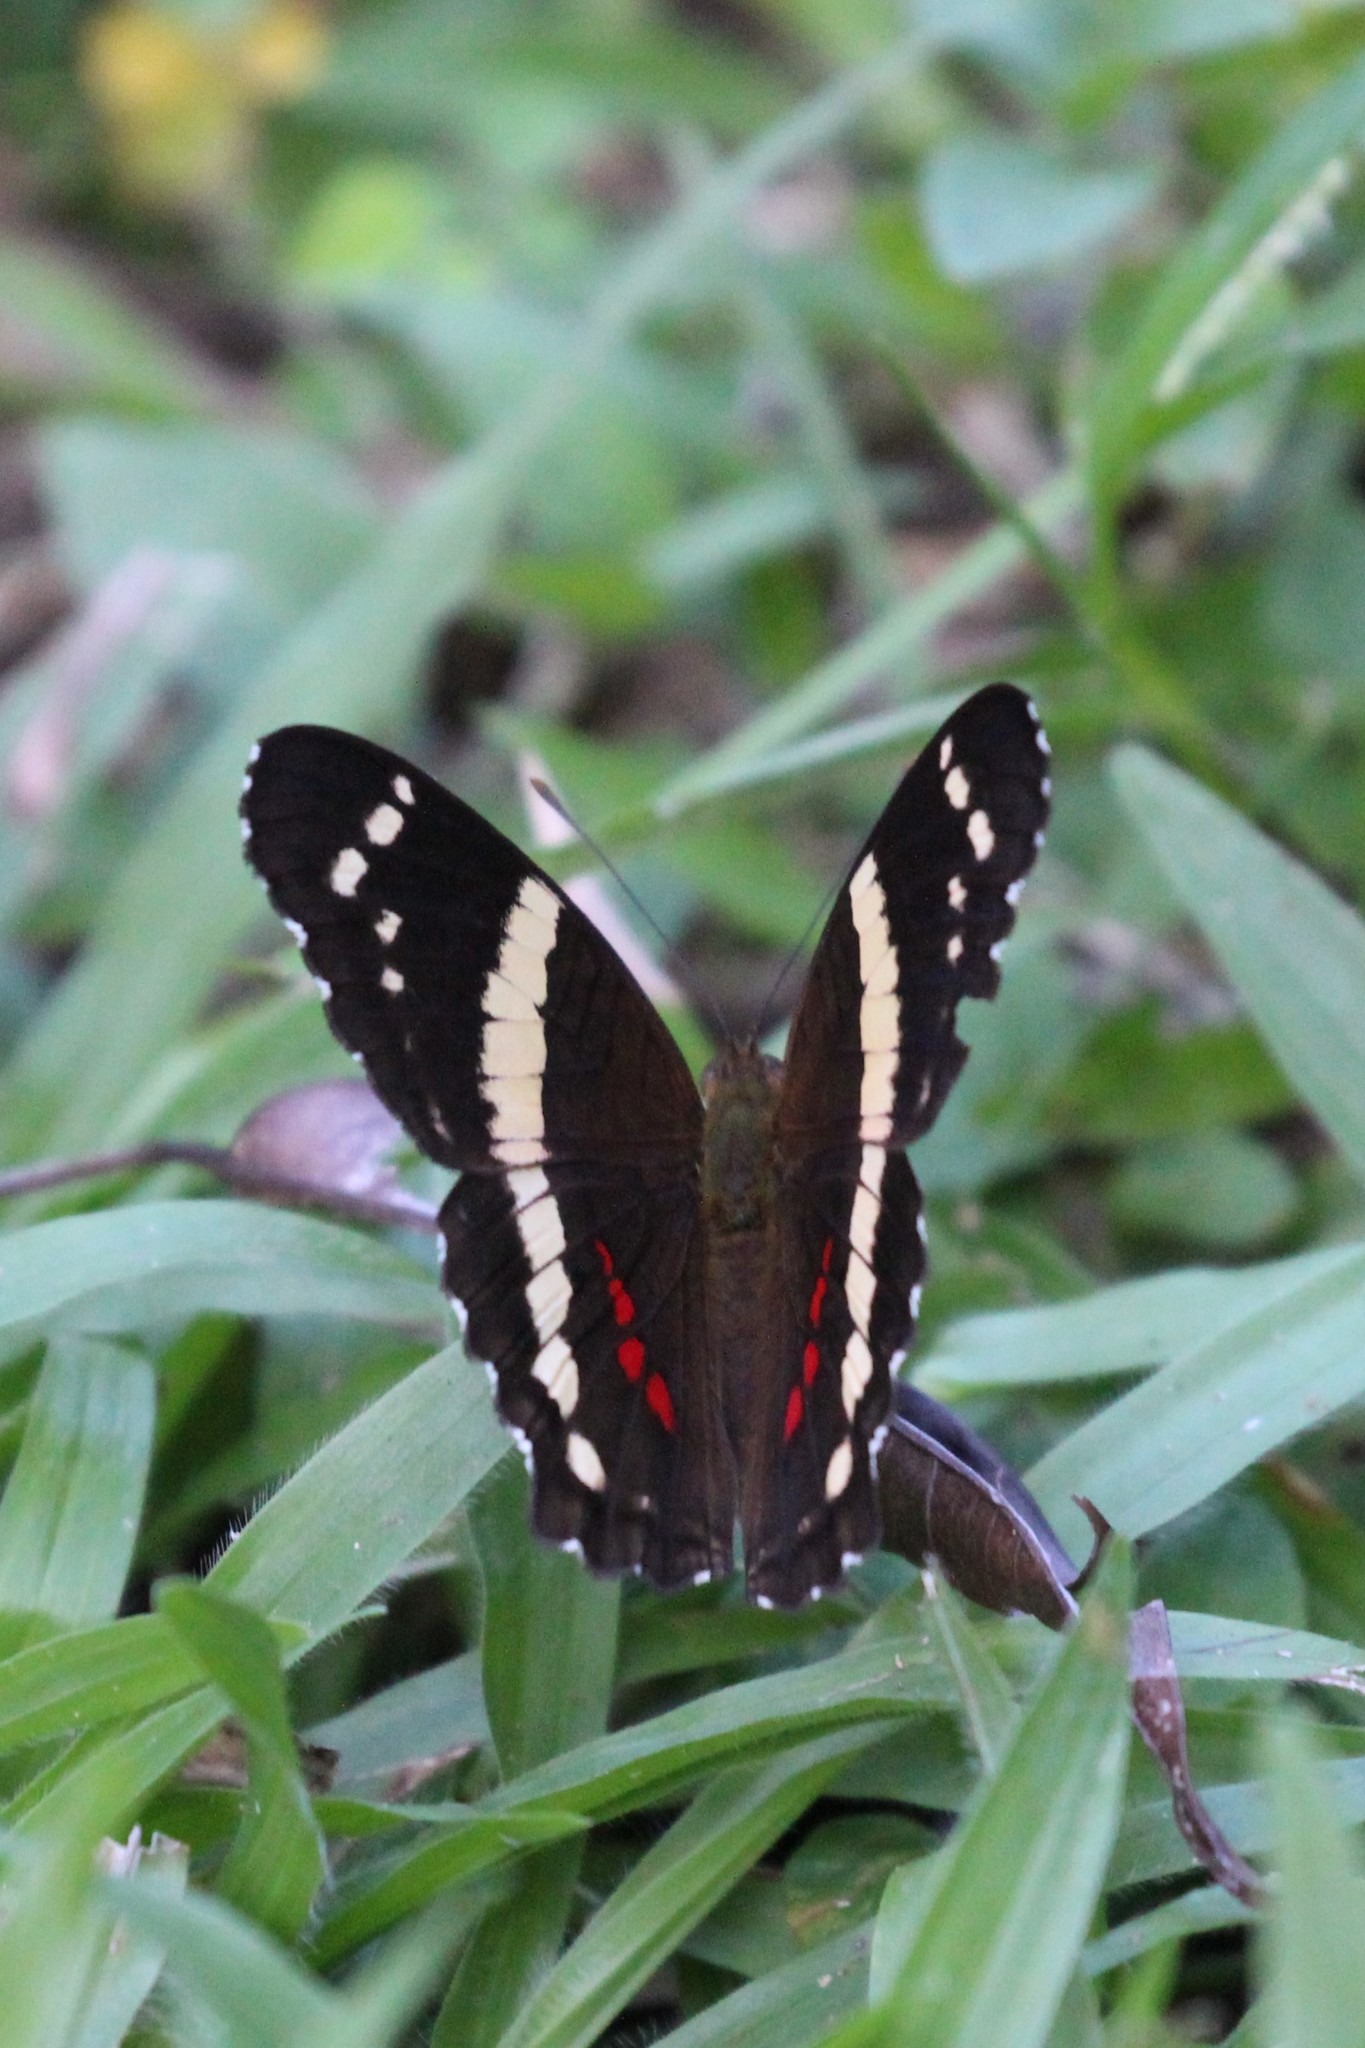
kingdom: Animalia
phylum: Arthropoda
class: Insecta
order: Lepidoptera
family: Nymphalidae
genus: Anartia
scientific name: Anartia fatima
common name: Banded peacock
